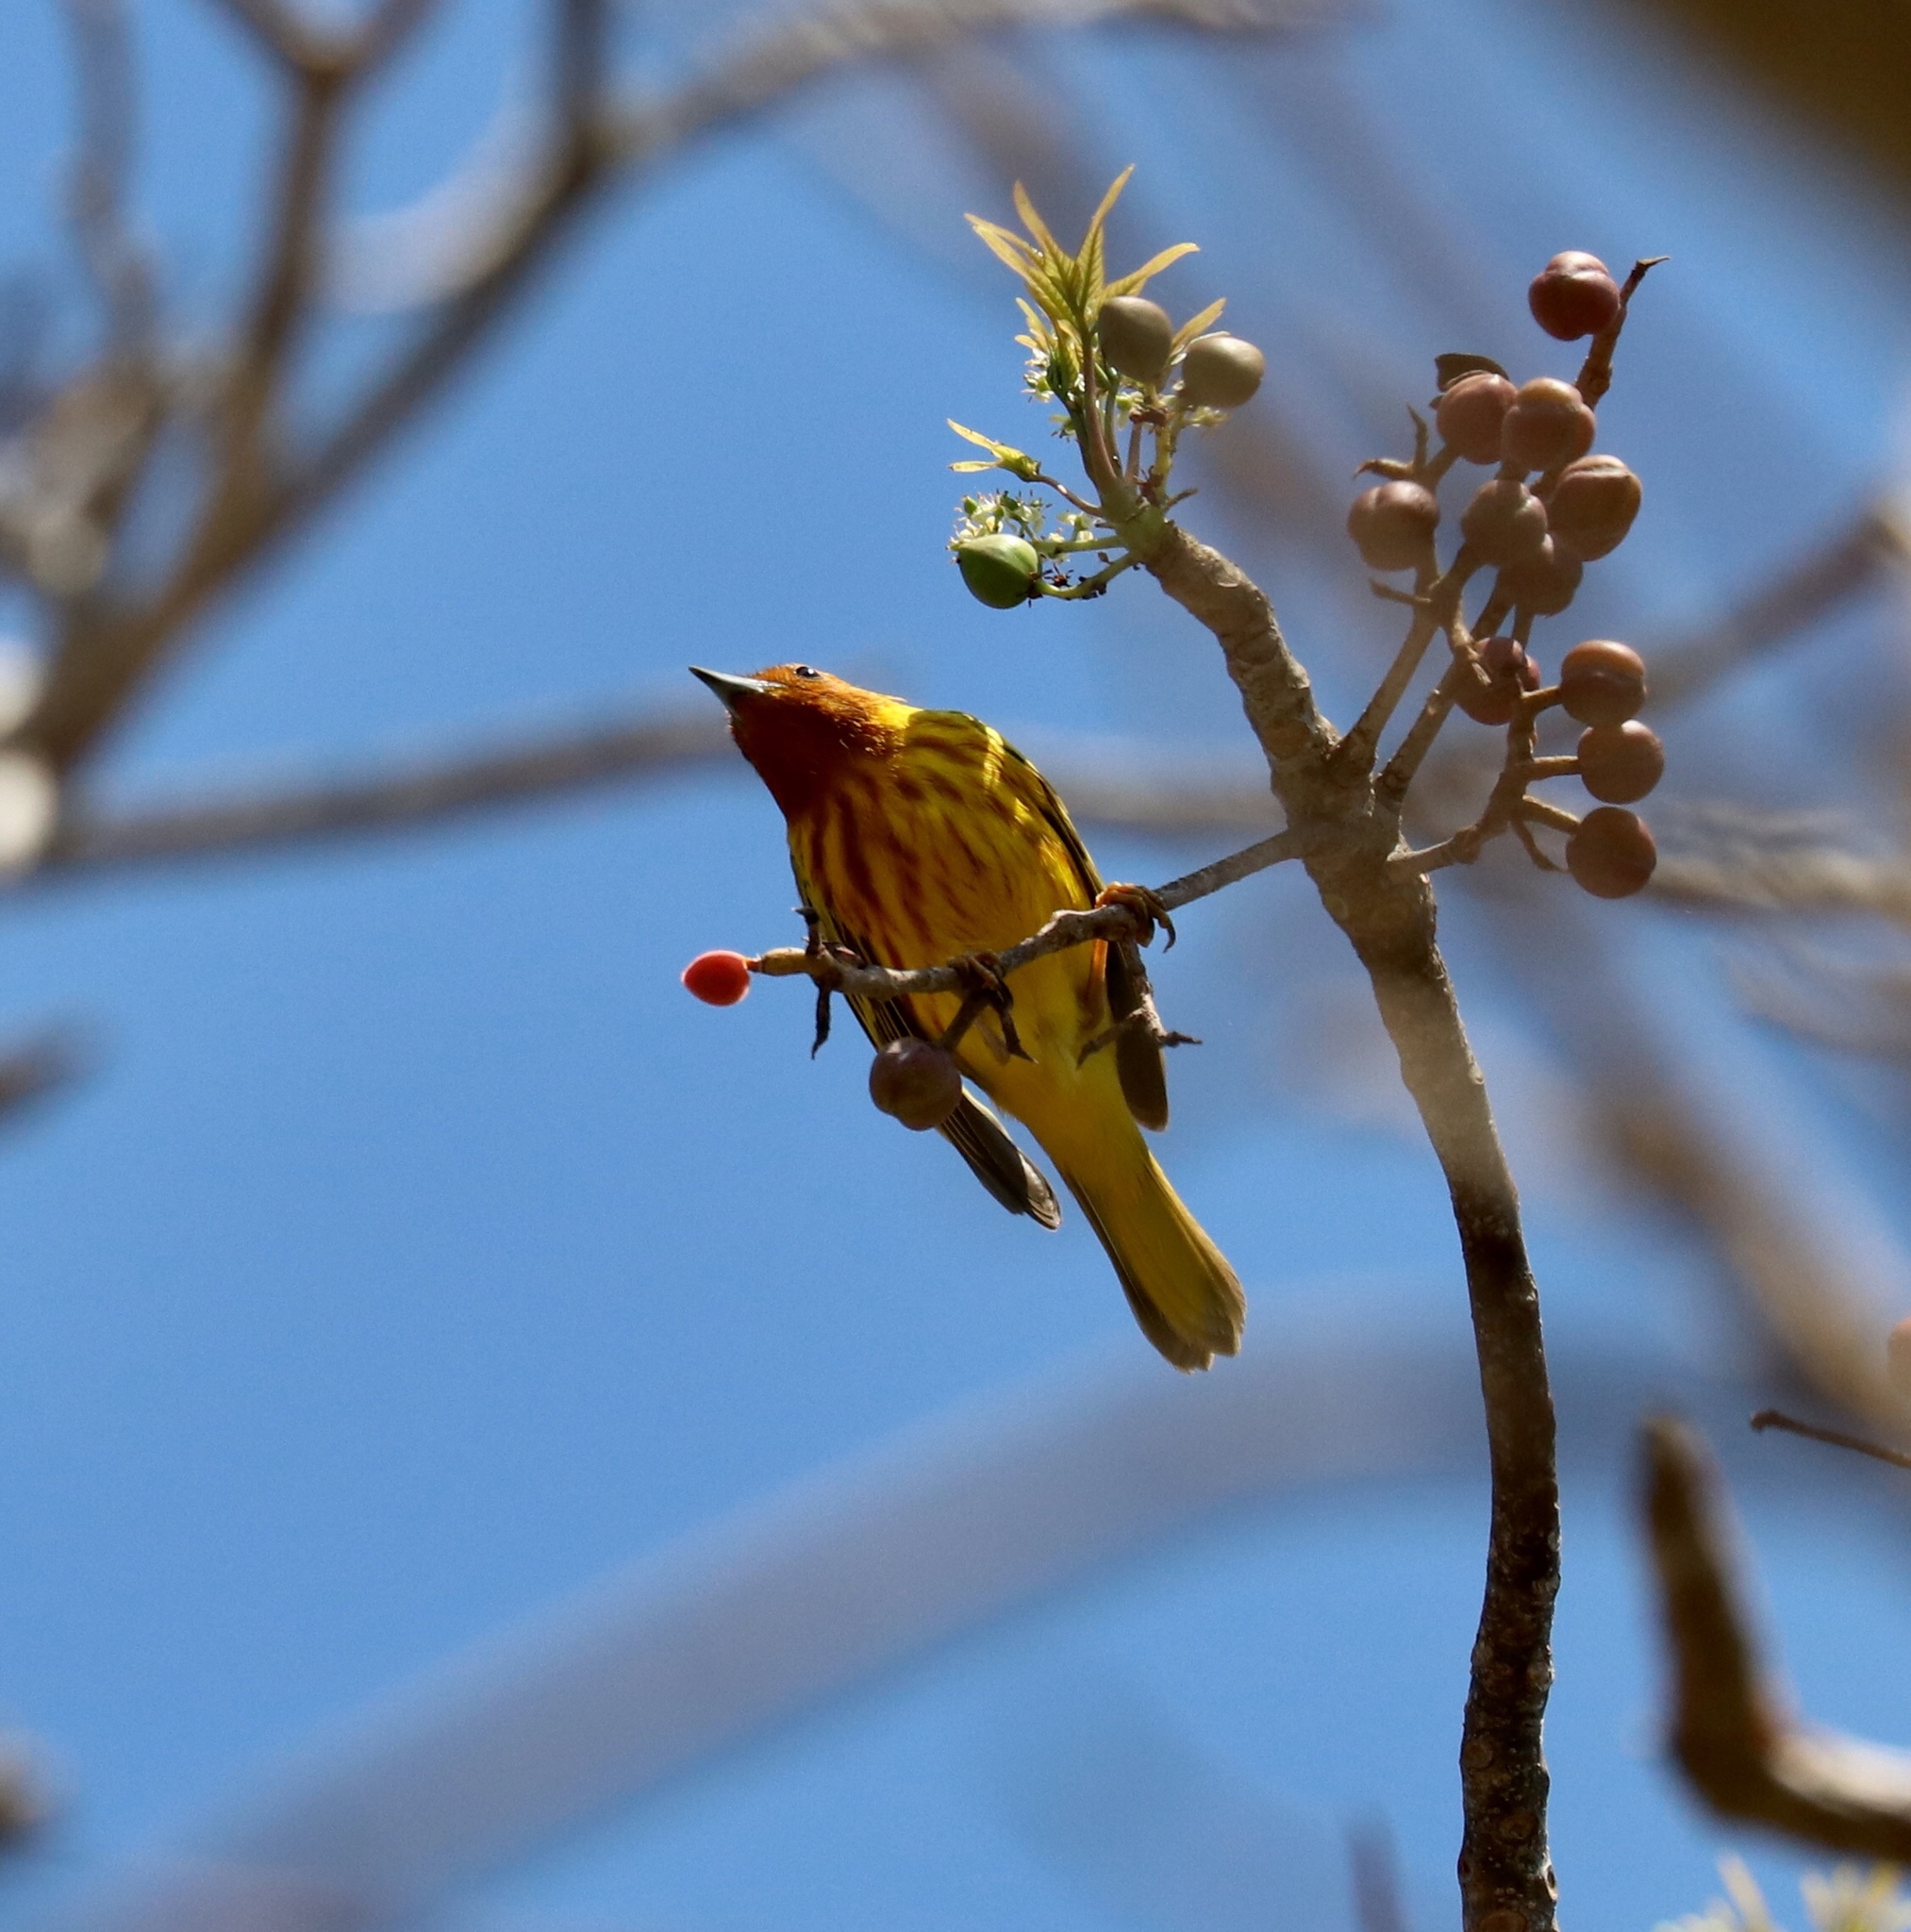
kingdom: Animalia
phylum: Chordata
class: Aves
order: Passeriformes
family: Parulidae
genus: Setophaga
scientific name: Setophaga petechia
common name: Yellow warbler
